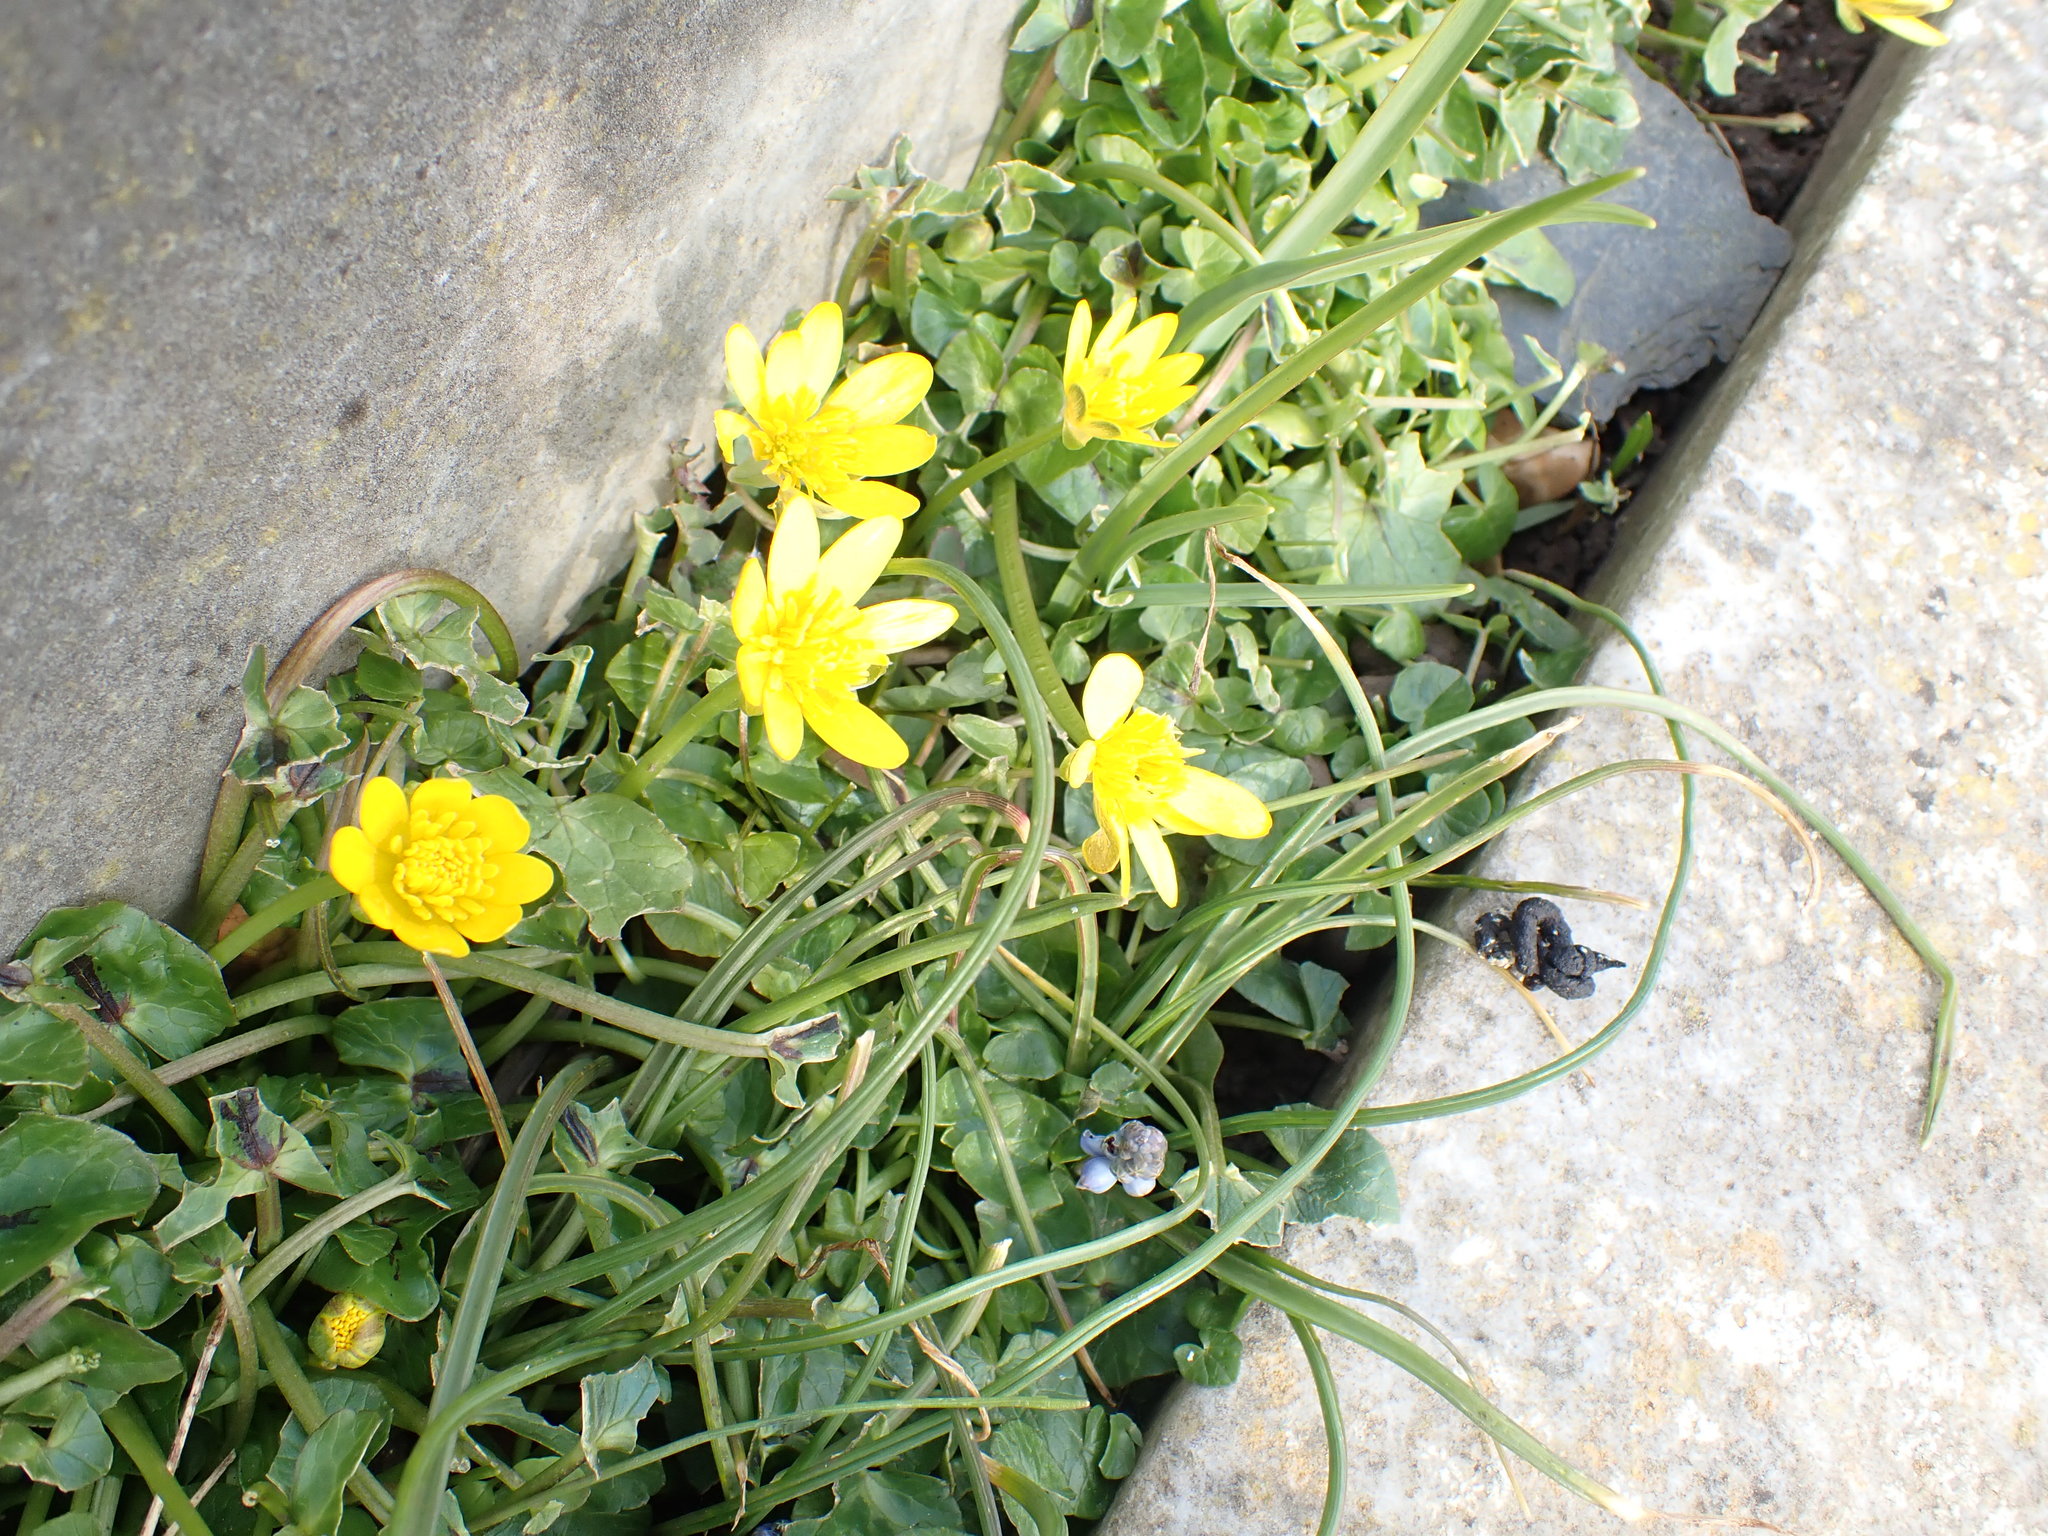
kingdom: Plantae
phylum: Tracheophyta
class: Magnoliopsida
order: Ranunculales
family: Ranunculaceae
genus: Ficaria
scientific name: Ficaria verna
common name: Lesser celandine
